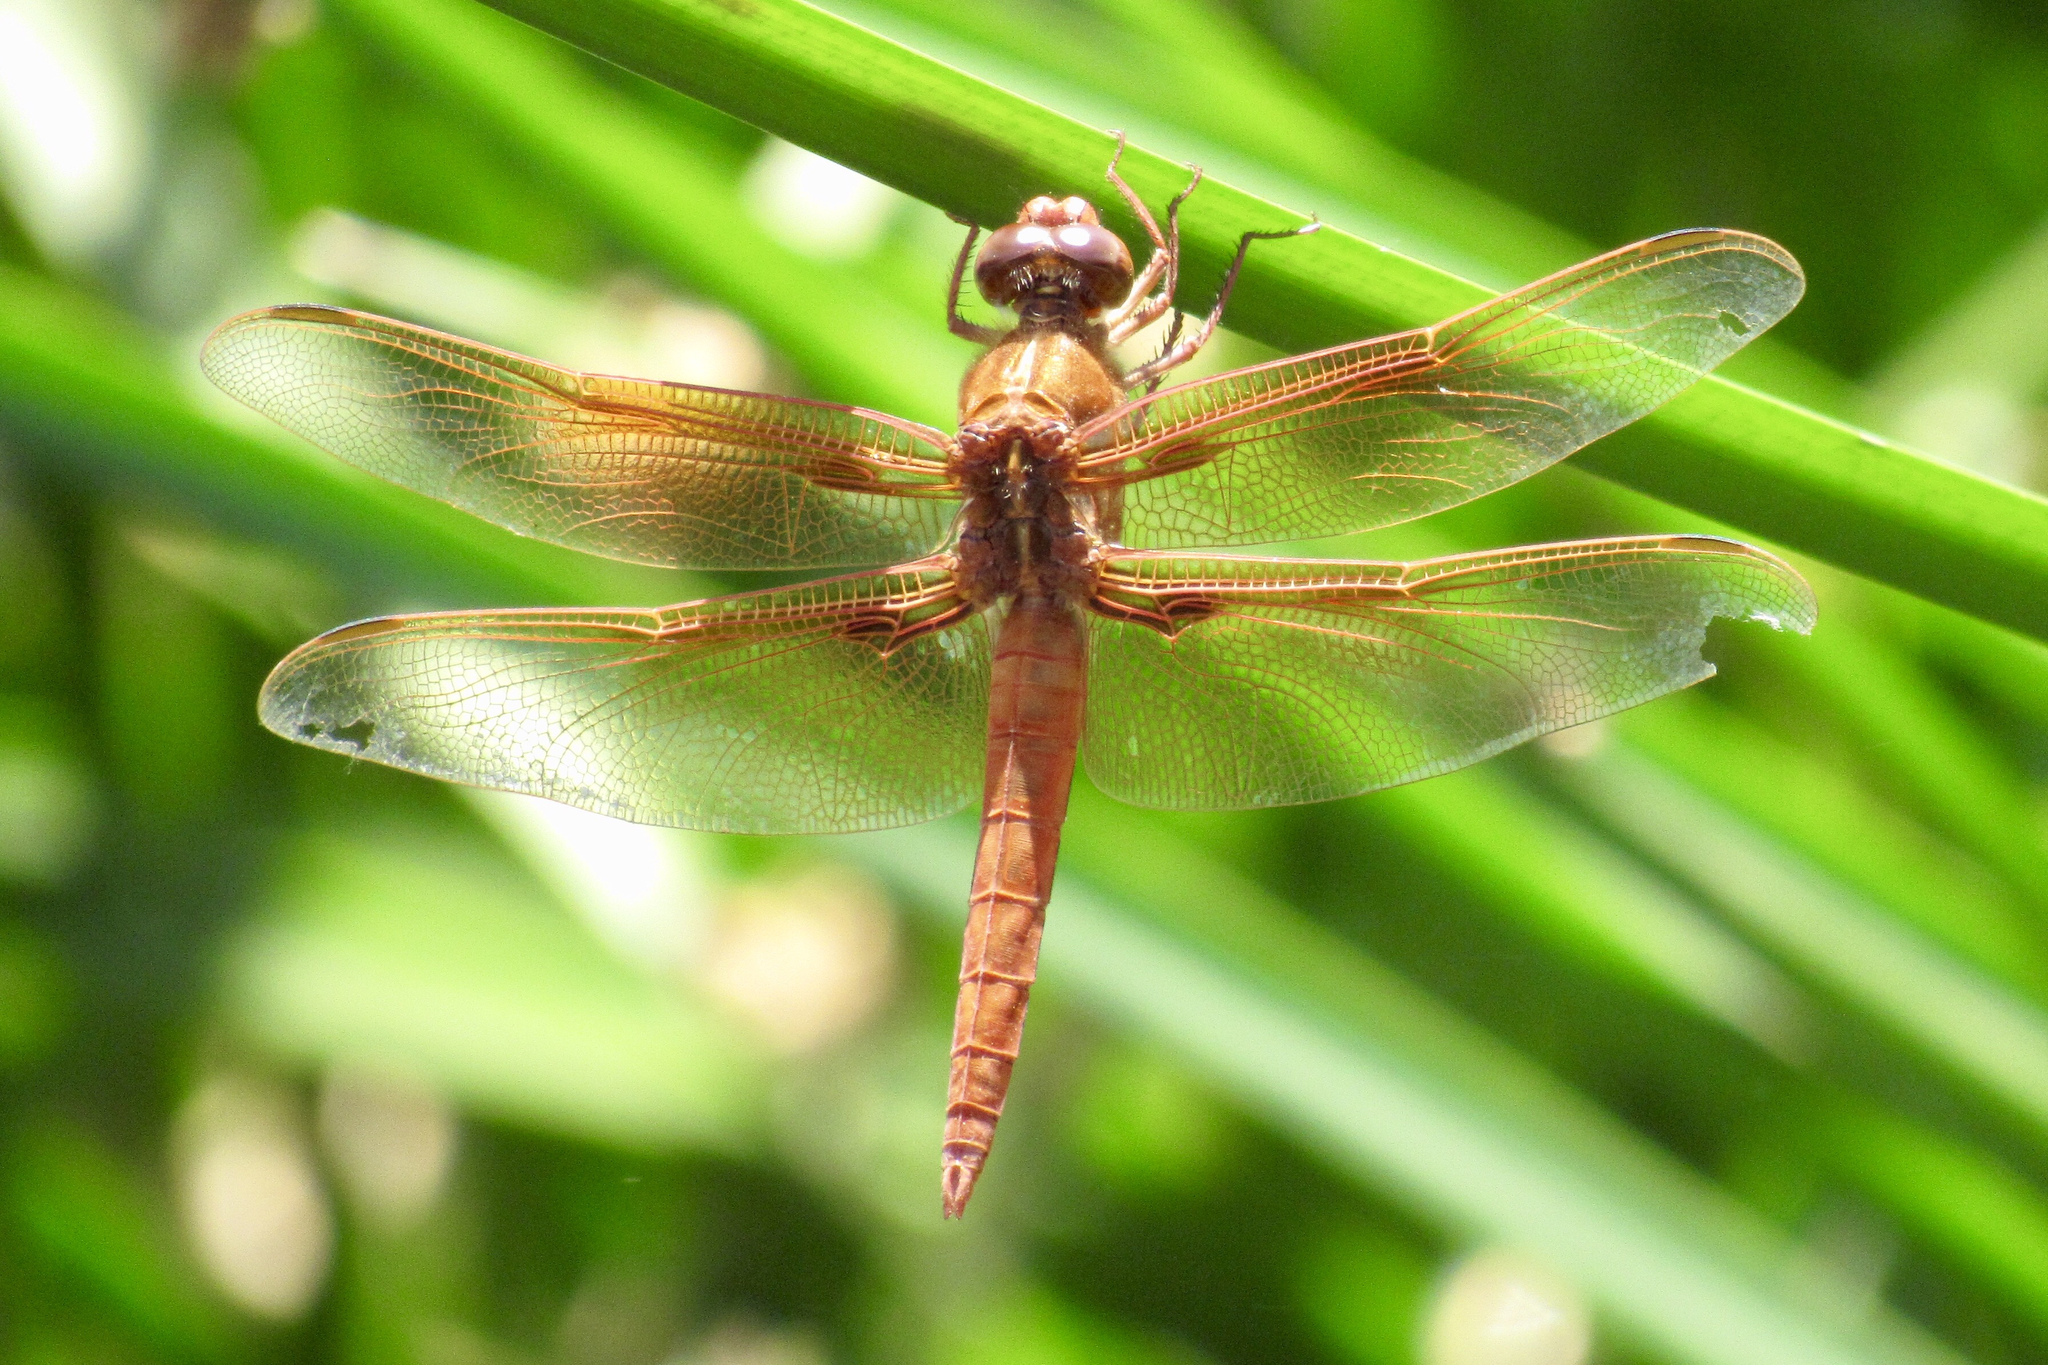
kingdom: Animalia
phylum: Arthropoda
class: Insecta
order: Odonata
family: Libellulidae
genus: Libellula
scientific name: Libellula saturata
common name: Flame skimmer
